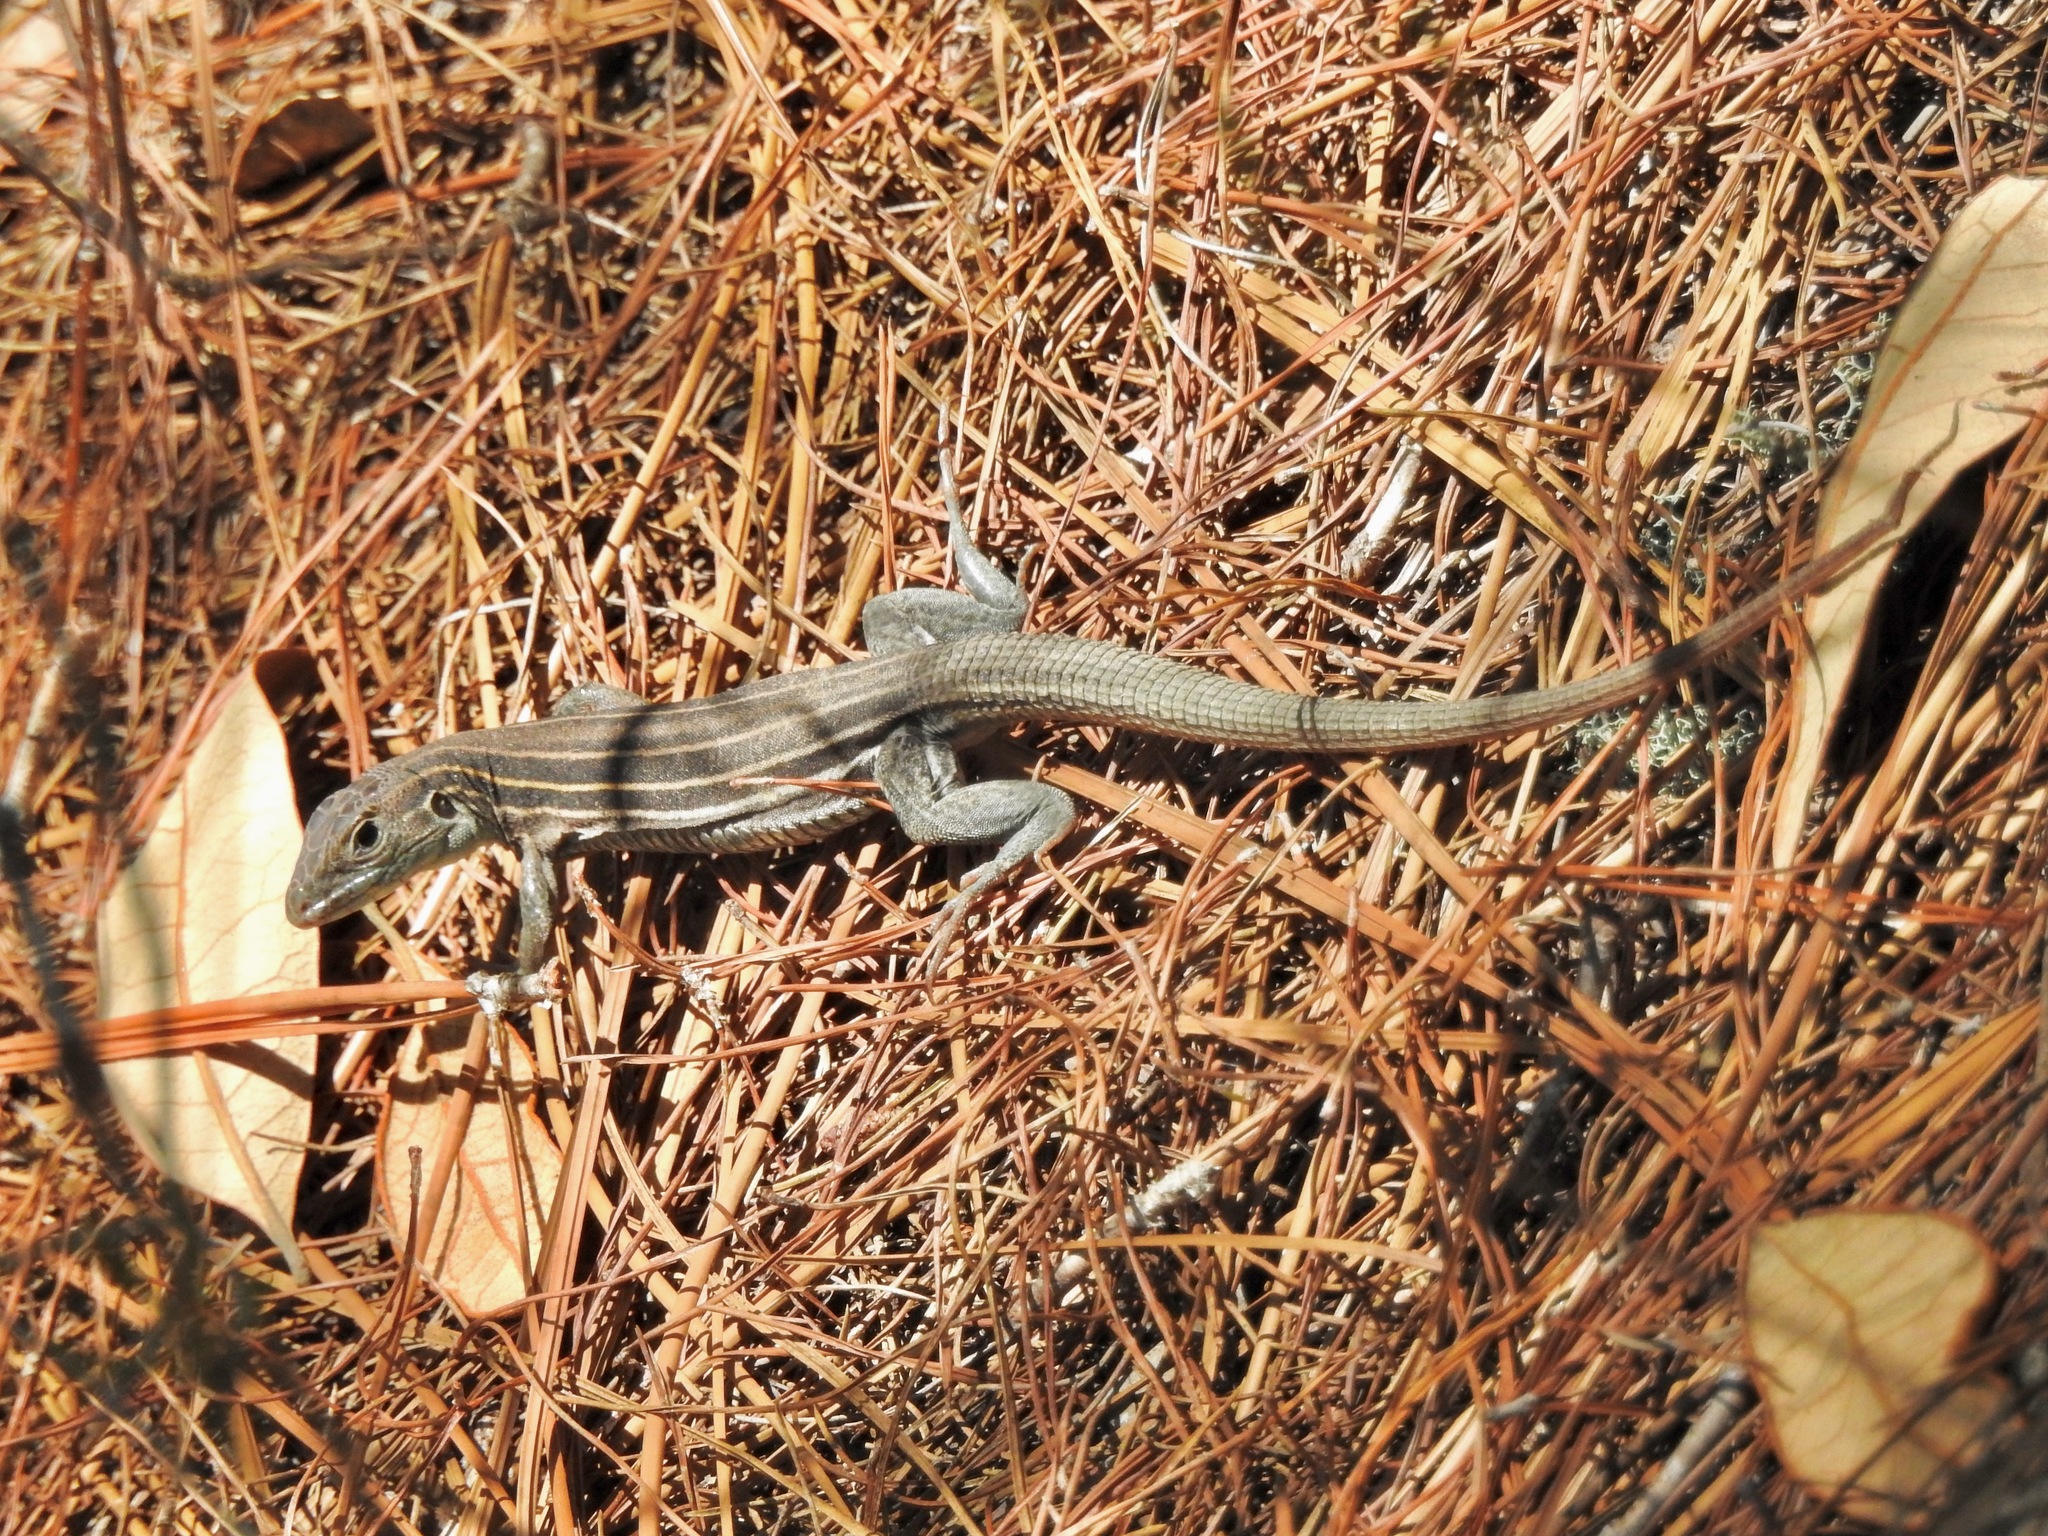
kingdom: Animalia
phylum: Chordata
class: Squamata
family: Teiidae
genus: Aspidoscelis
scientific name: Aspidoscelis sexlineatus
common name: Six-lined racerunner
